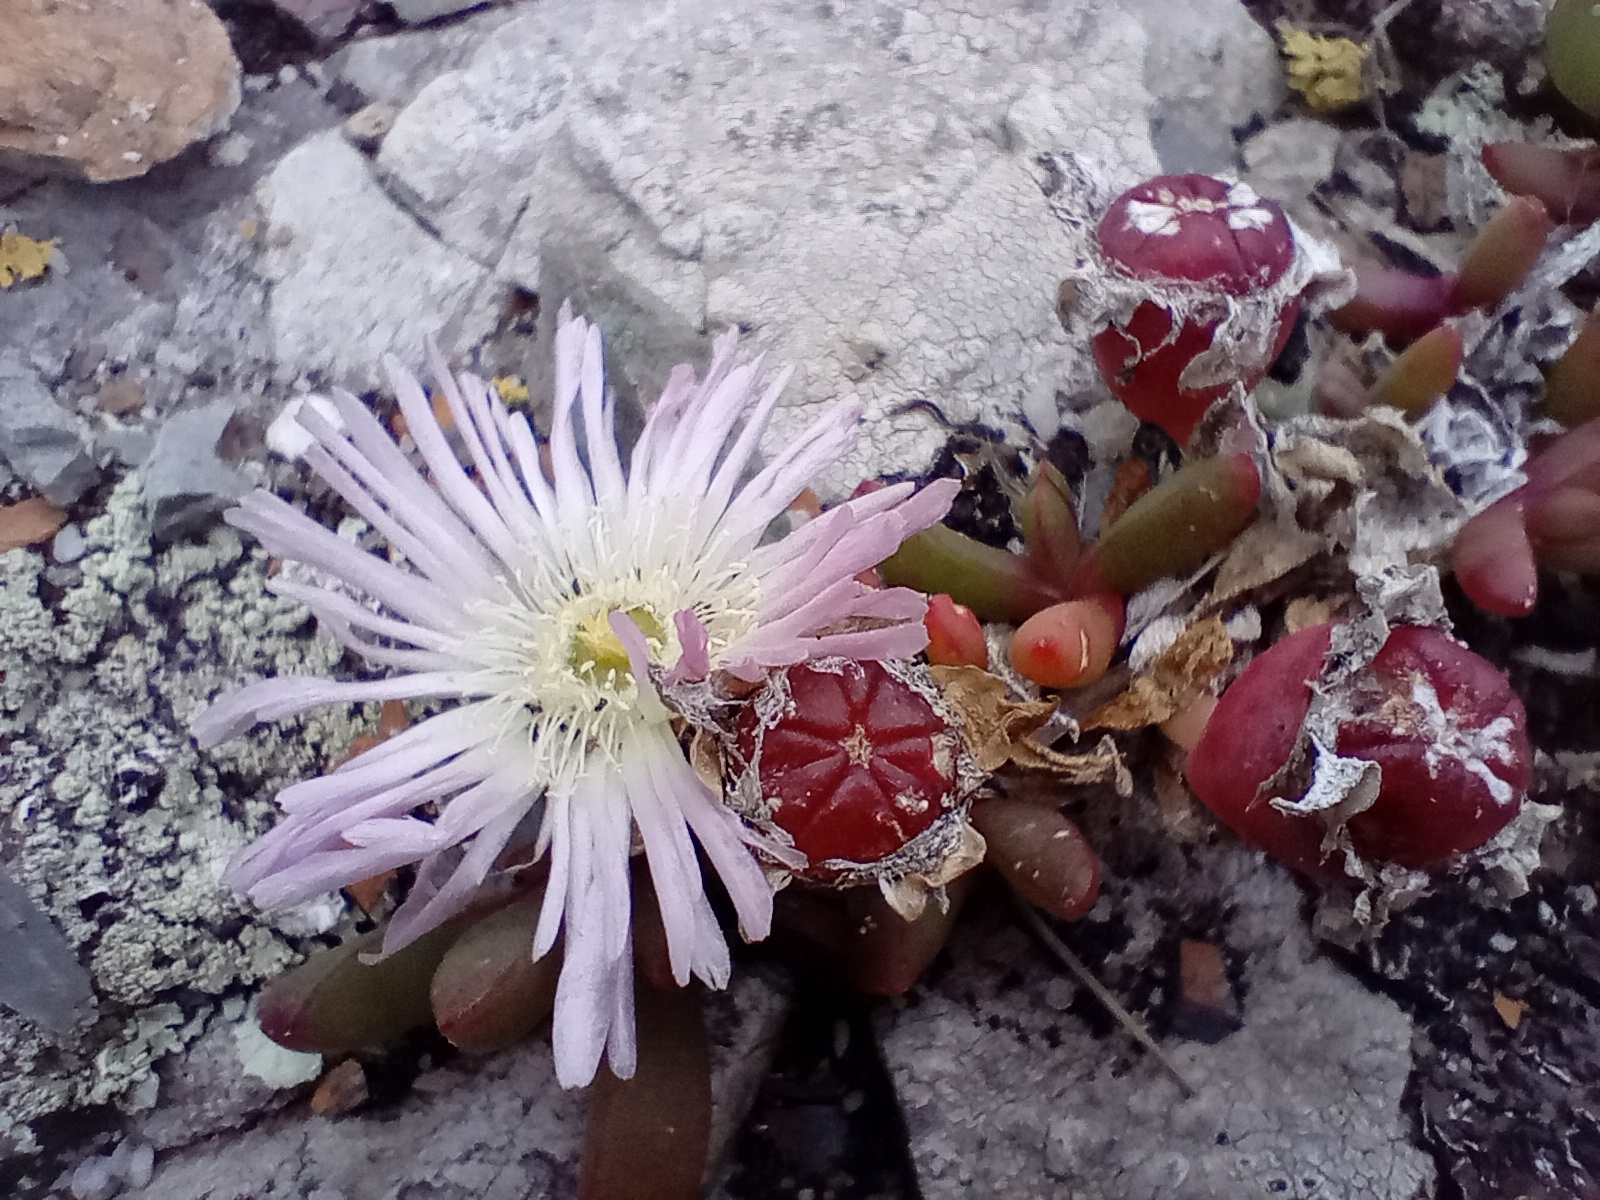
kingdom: Plantae
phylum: Tracheophyta
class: Magnoliopsida
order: Caryophyllales
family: Aizoaceae
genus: Disphyma
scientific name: Disphyma australe
